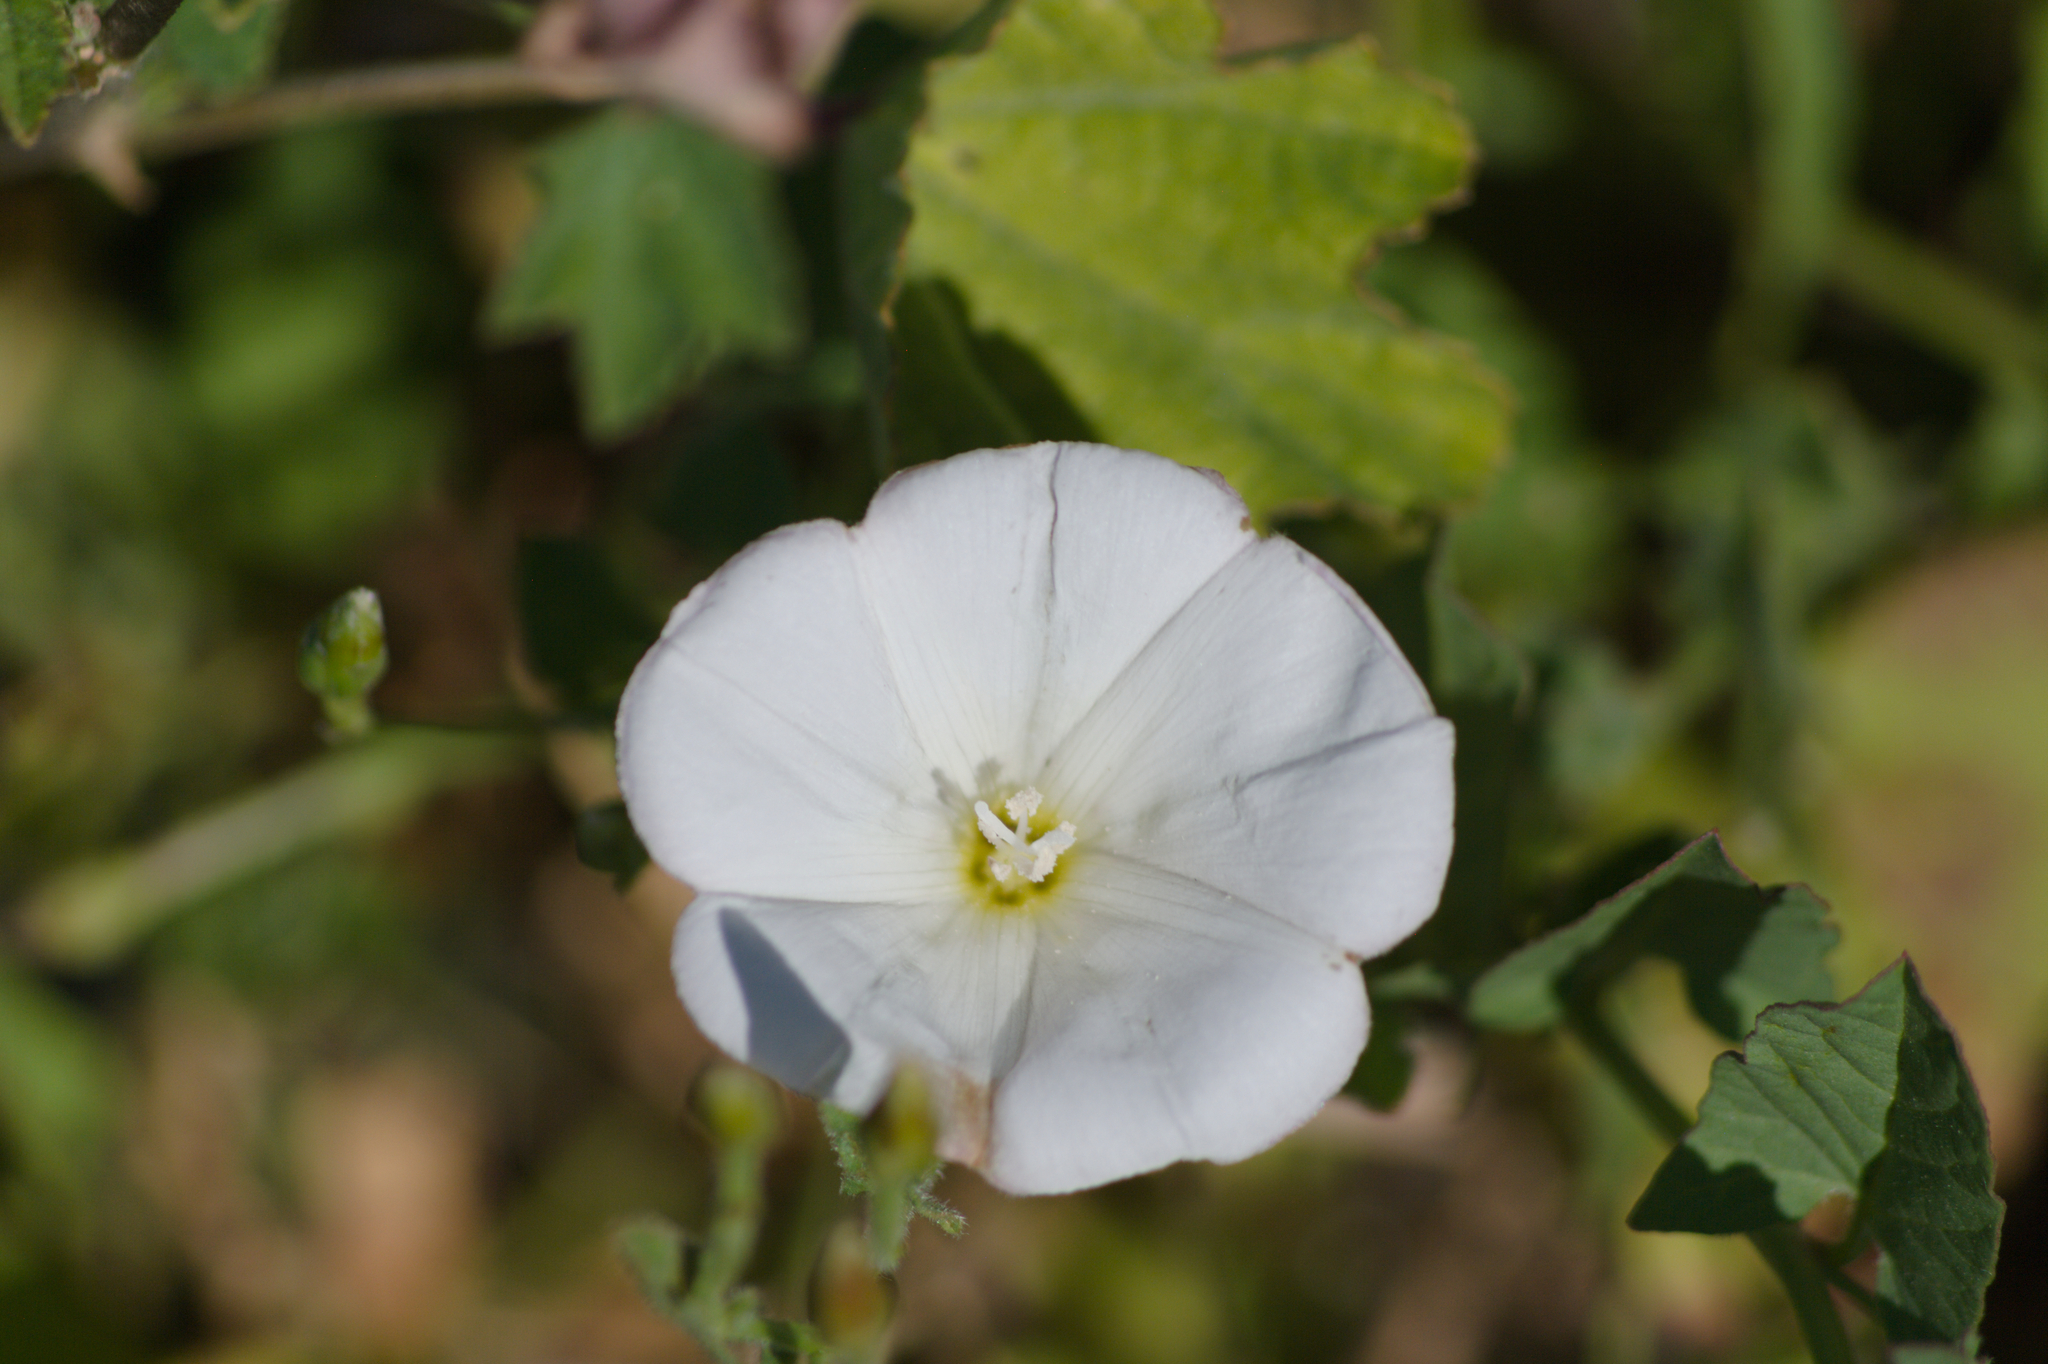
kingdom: Plantae
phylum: Tracheophyta
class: Magnoliopsida
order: Solanales
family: Convolvulaceae
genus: Convolvulus
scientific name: Convolvulus arvensis
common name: Field bindweed
